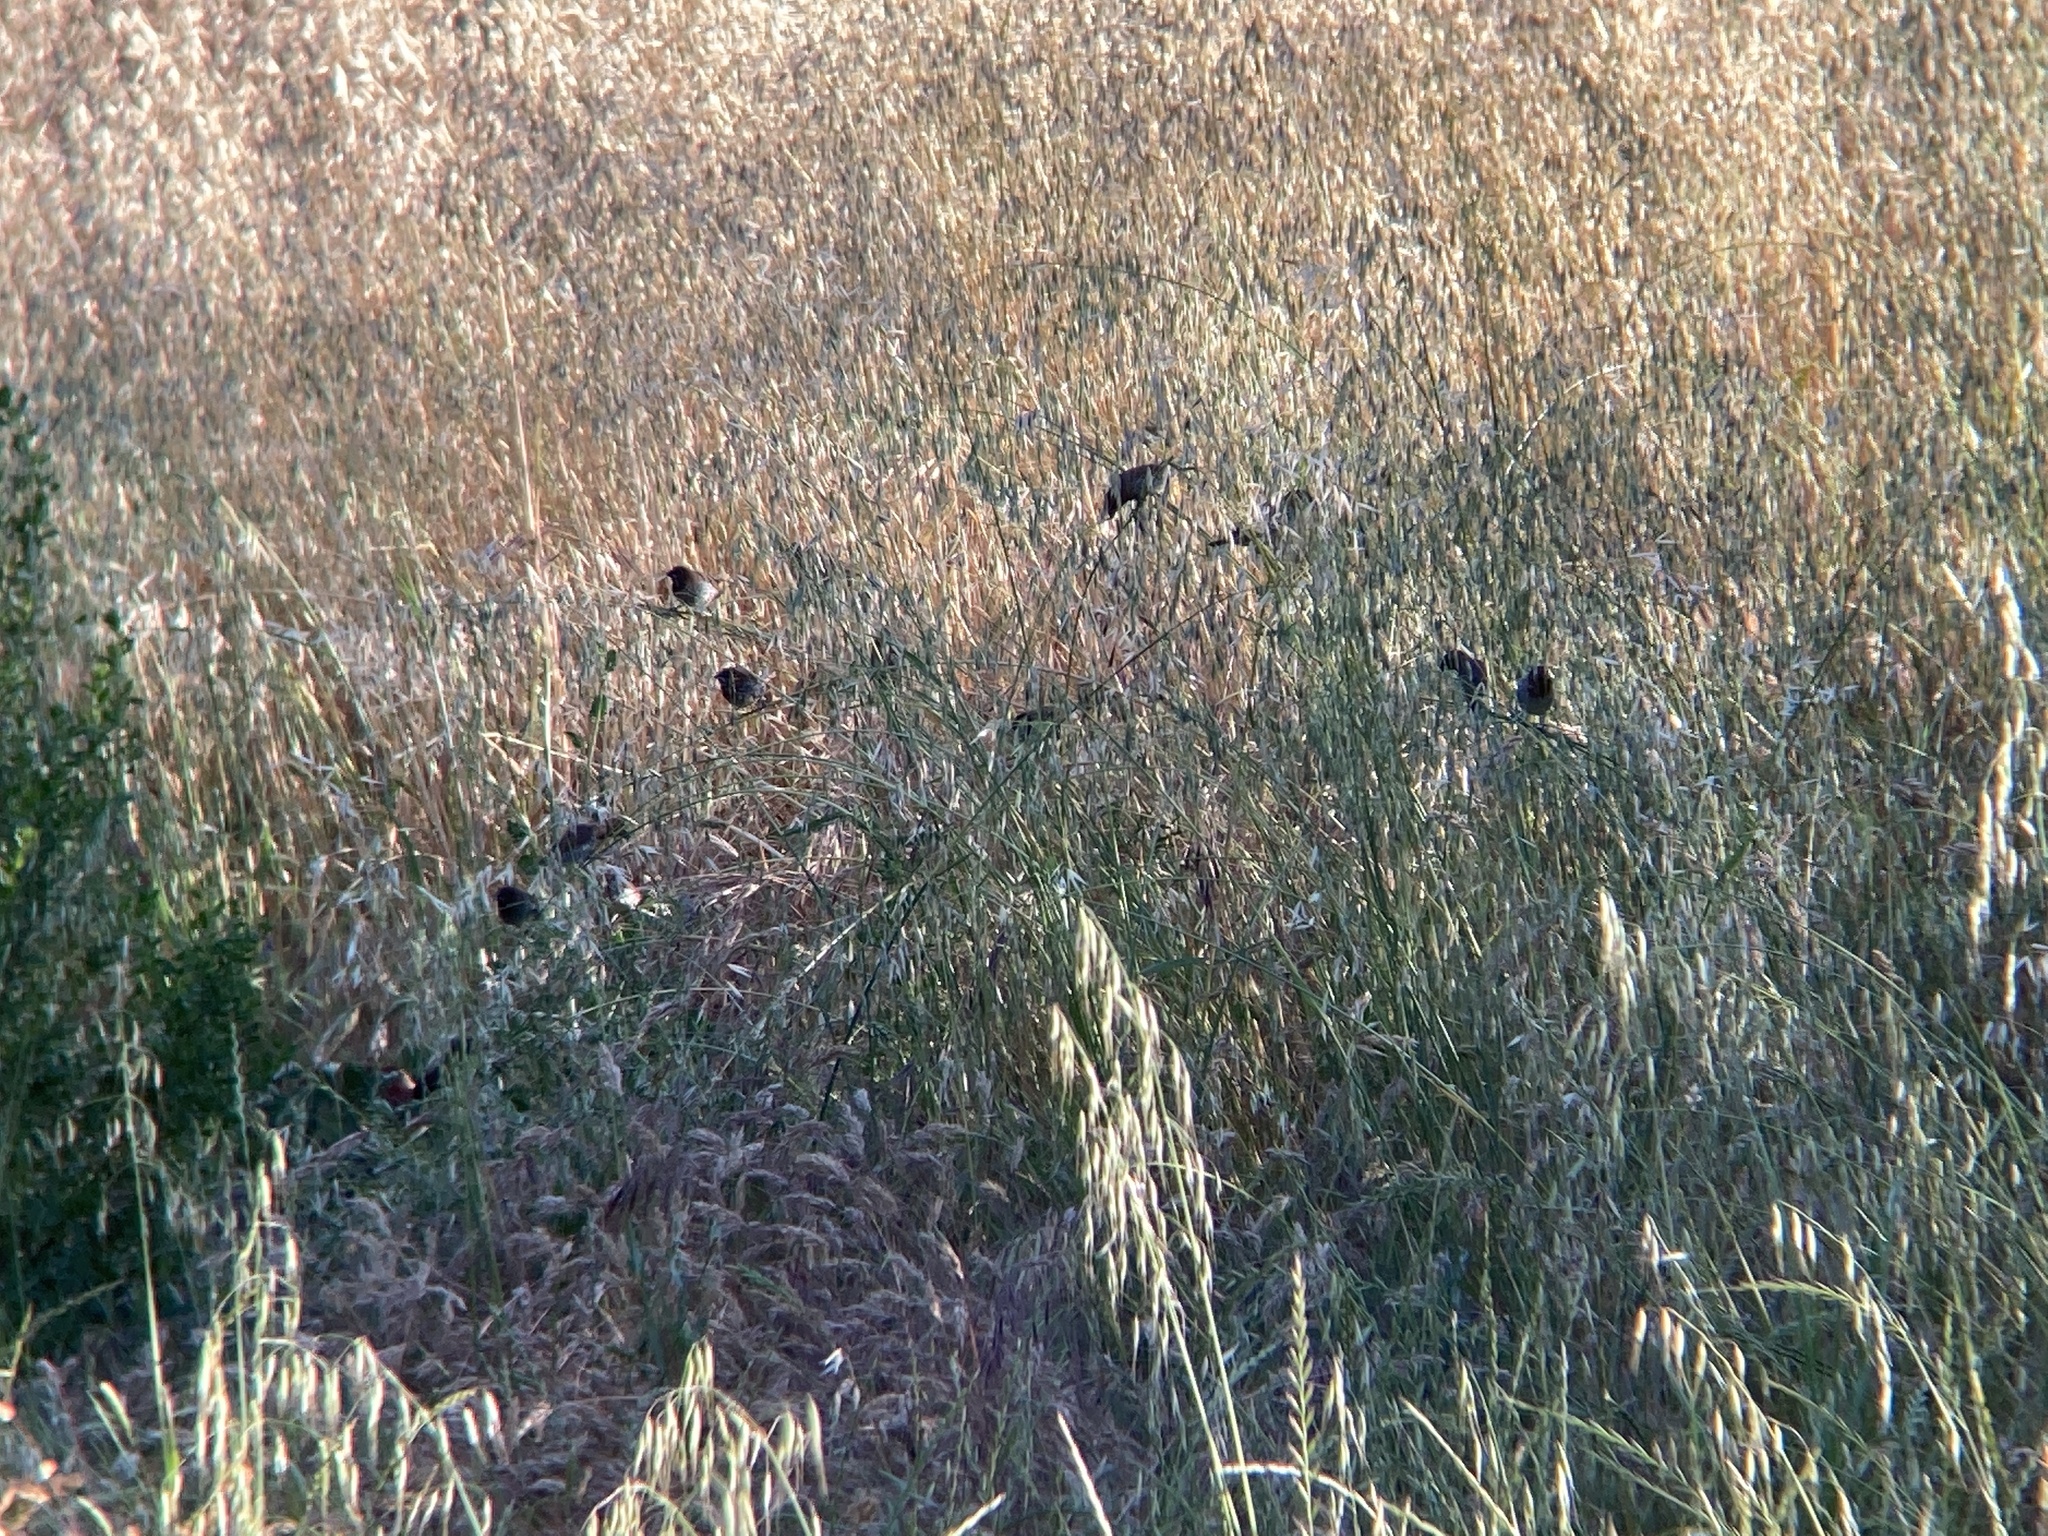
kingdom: Animalia
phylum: Chordata
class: Aves
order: Passeriformes
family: Estrildidae
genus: Lonchura
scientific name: Lonchura punctulata
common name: Scaly-breasted munia
